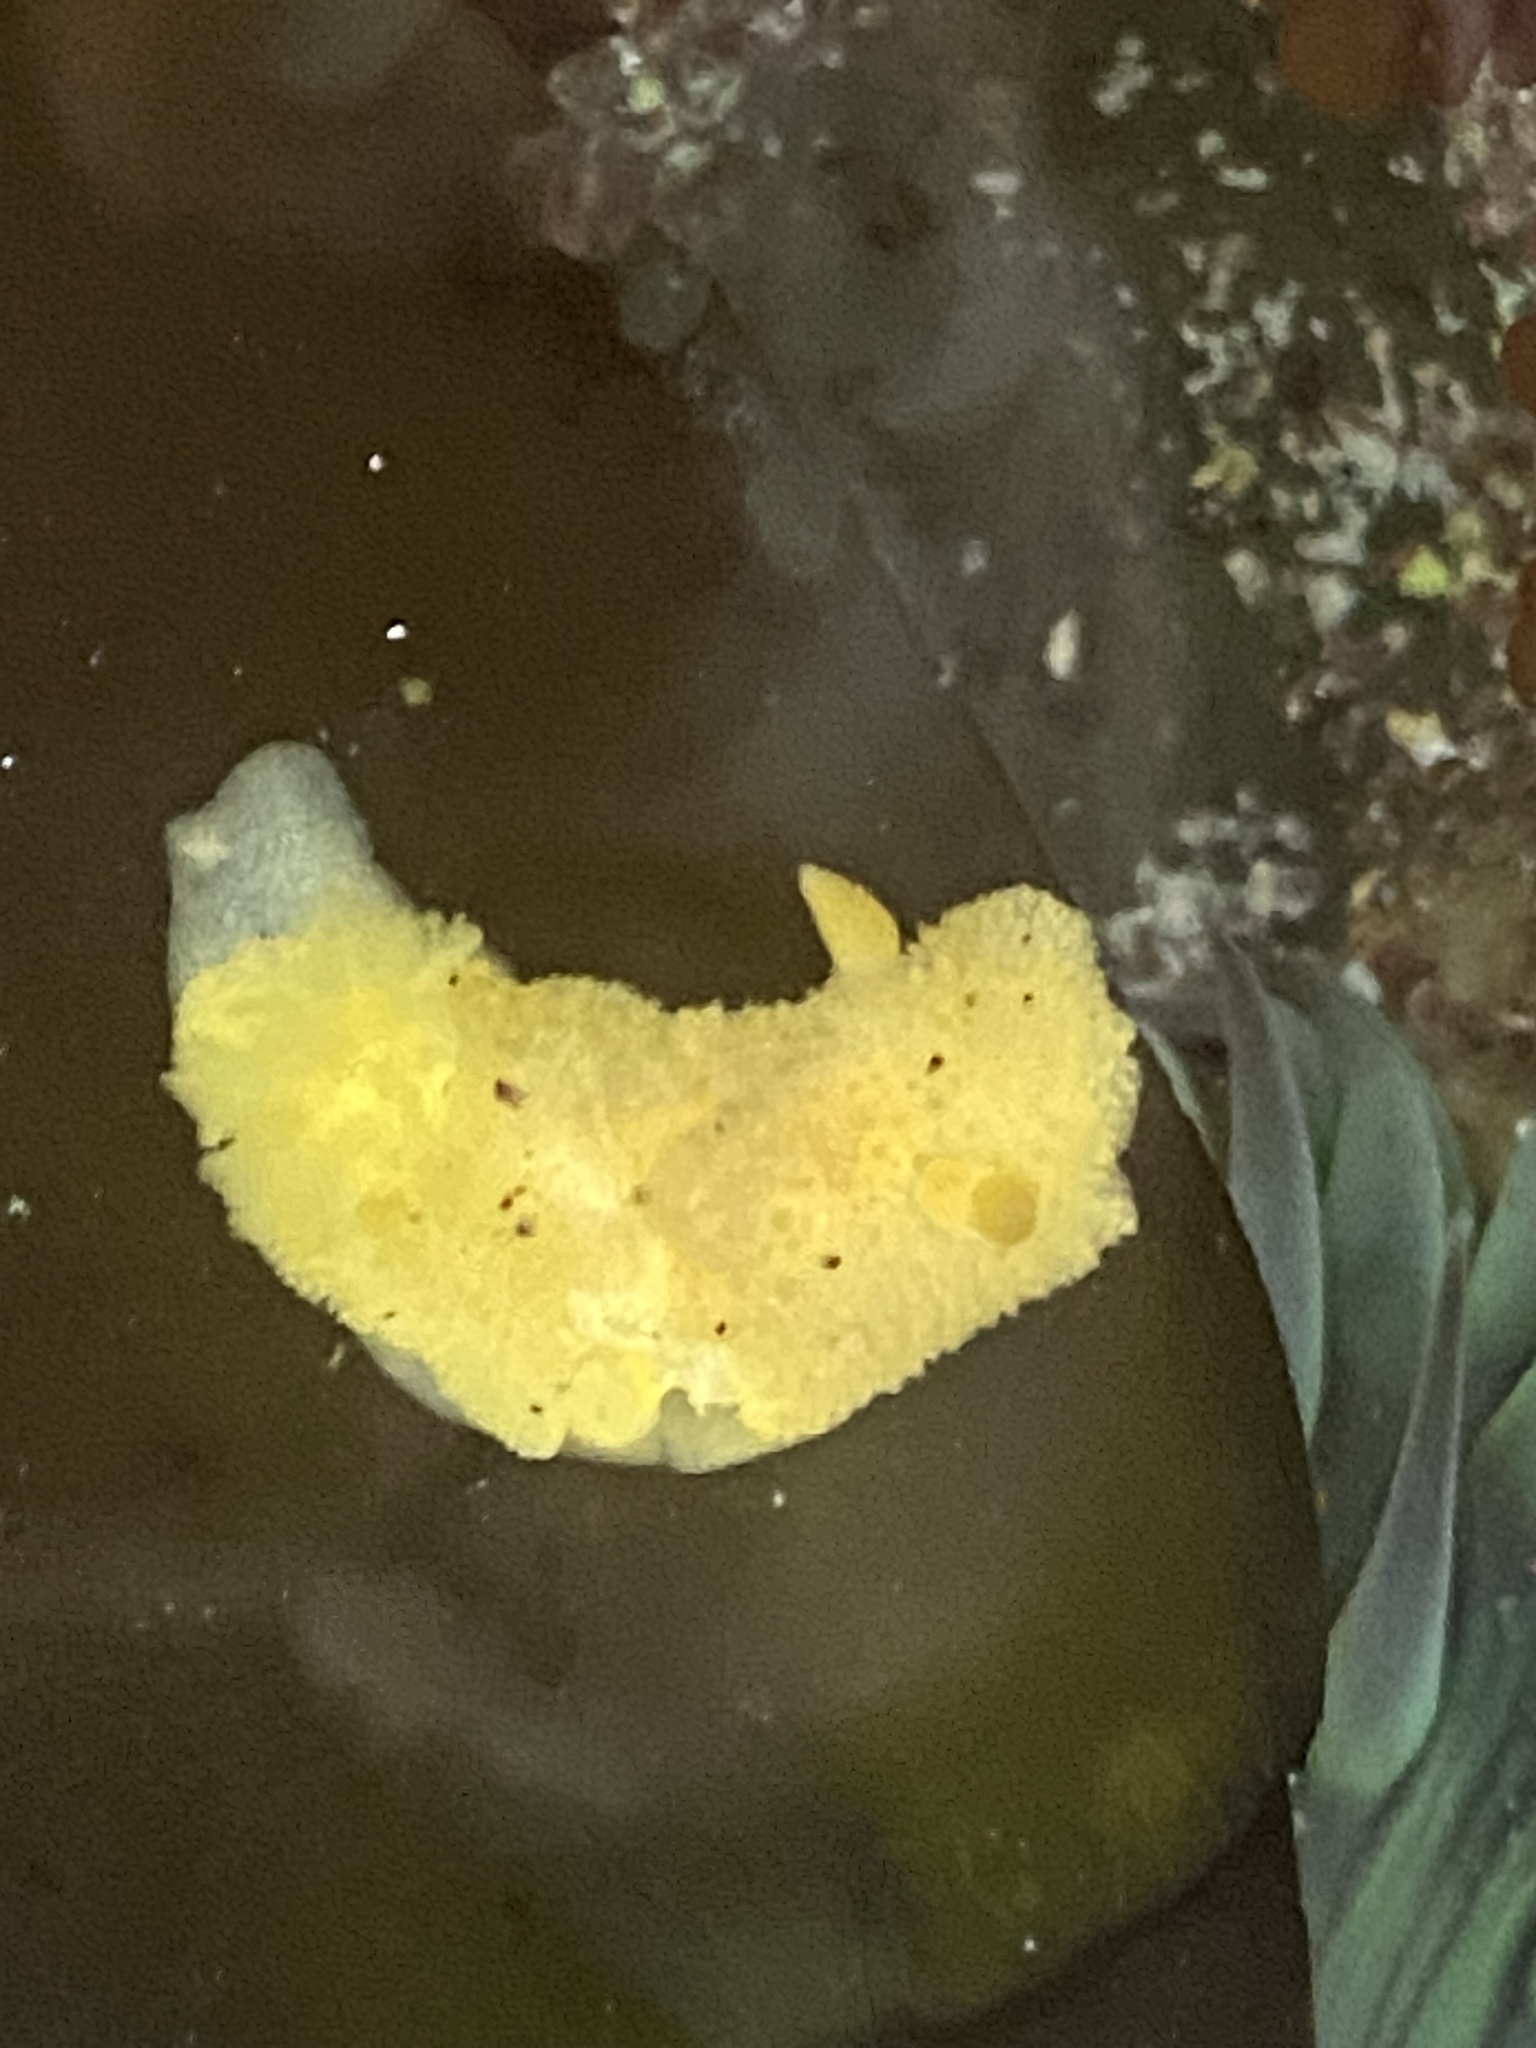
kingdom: Animalia
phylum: Mollusca
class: Gastropoda
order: Nudibranchia
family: Dorididae
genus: Doris
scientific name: Doris montereyensis
